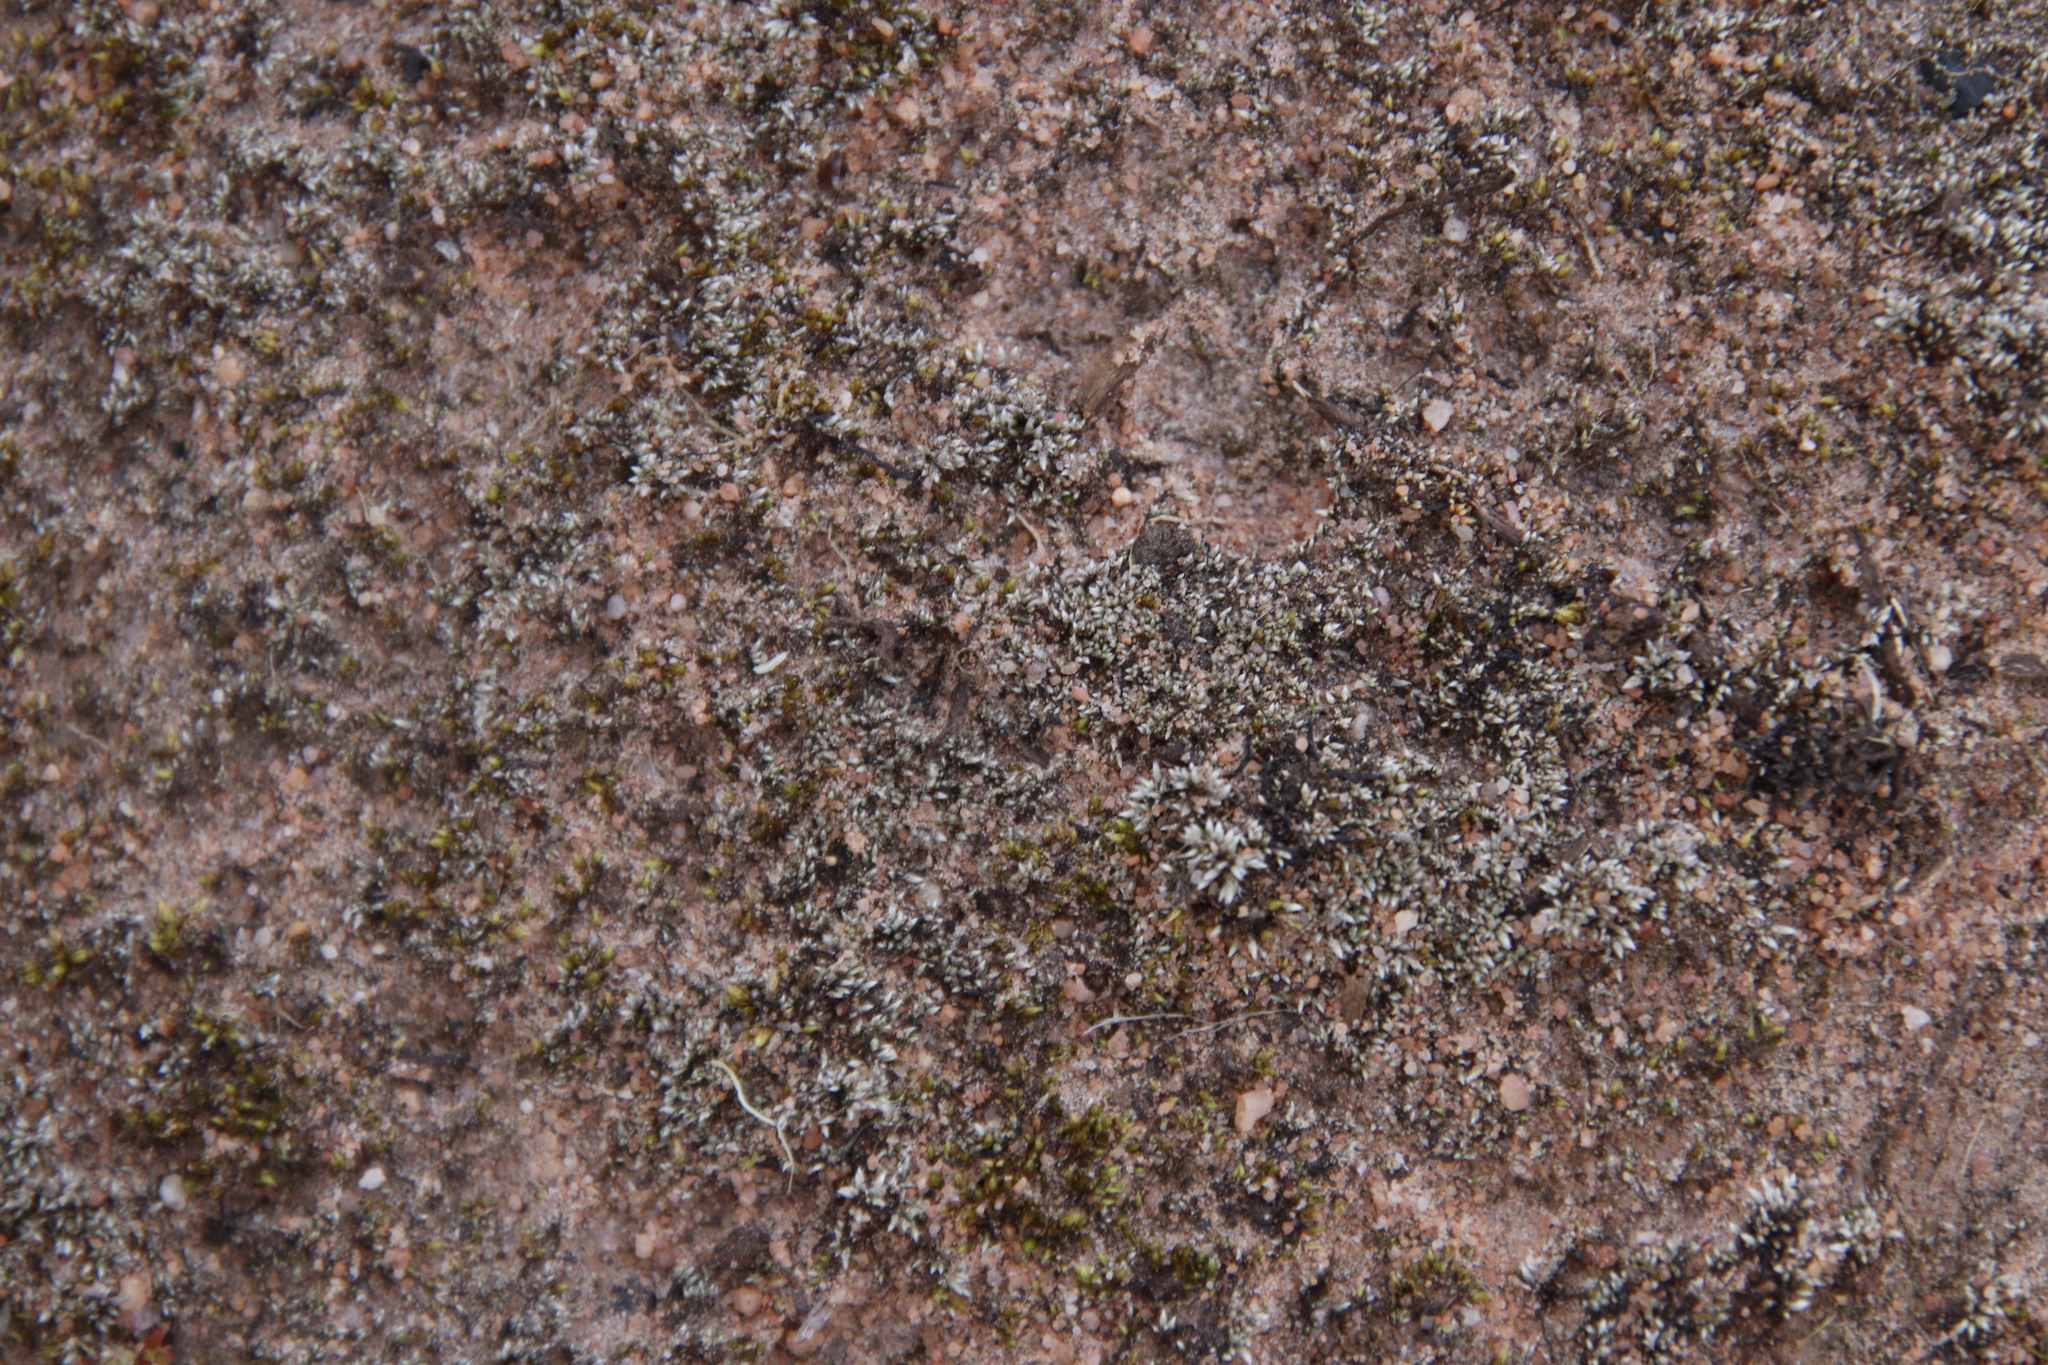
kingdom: Plantae
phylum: Bryophyta
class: Bryopsida
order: Bryales
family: Bryaceae
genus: Bryum
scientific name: Bryum argenteum
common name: Silver-moss
